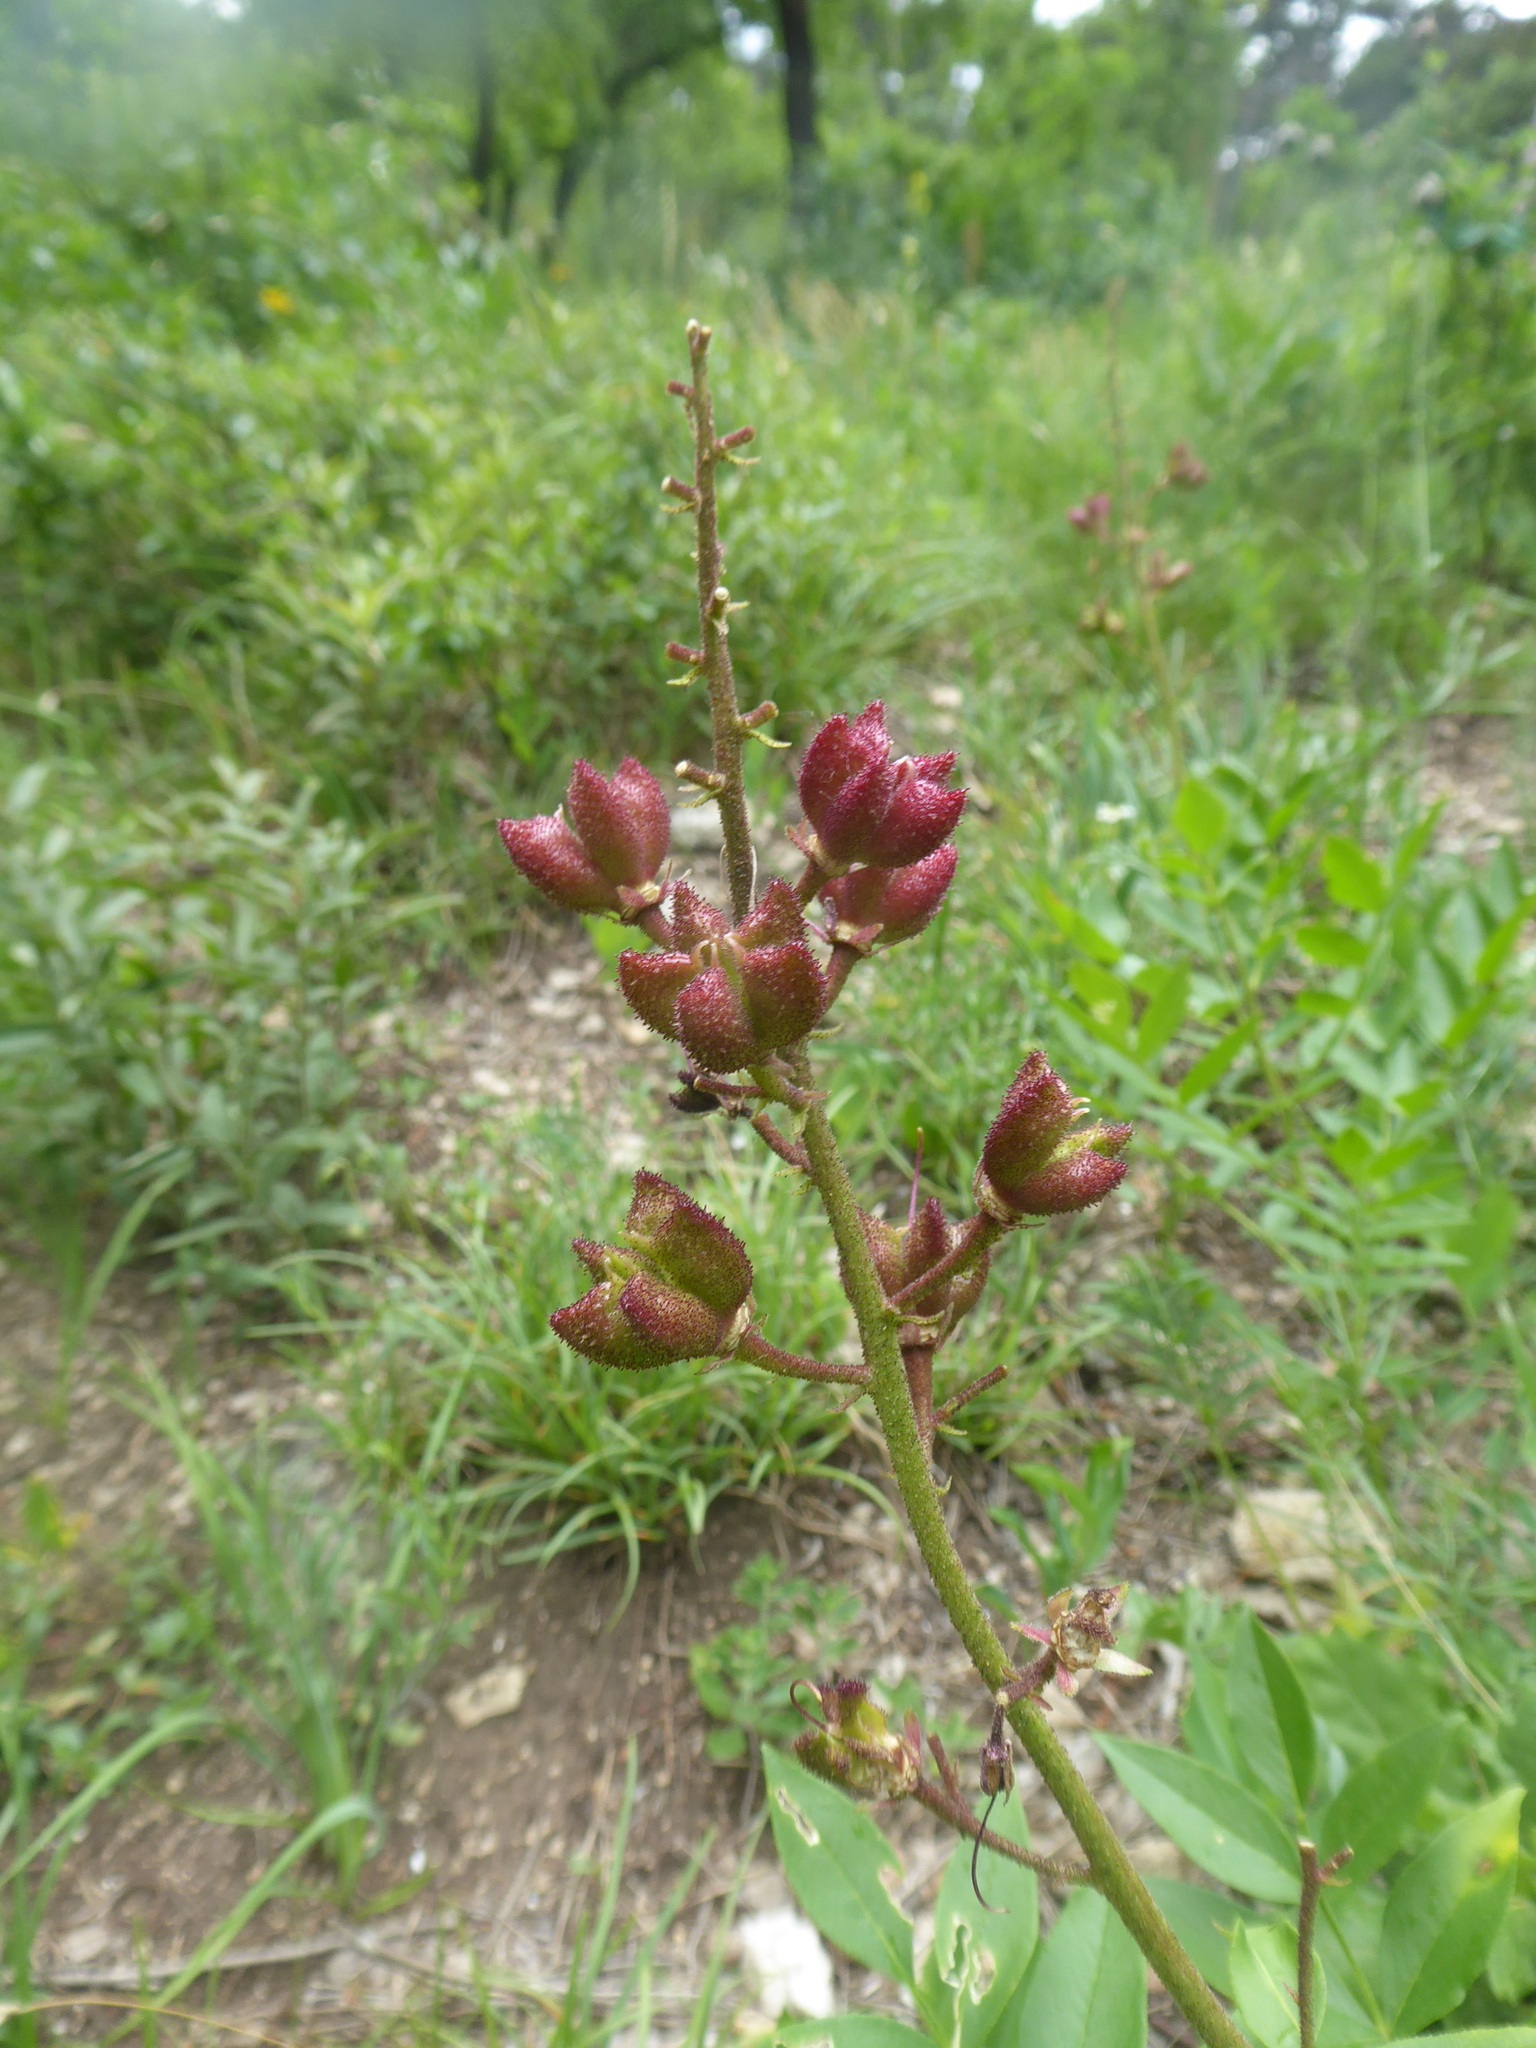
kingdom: Plantae
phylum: Tracheophyta
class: Magnoliopsida
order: Sapindales
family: Rutaceae
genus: Dictamnus
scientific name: Dictamnus albus
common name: Gasplant
